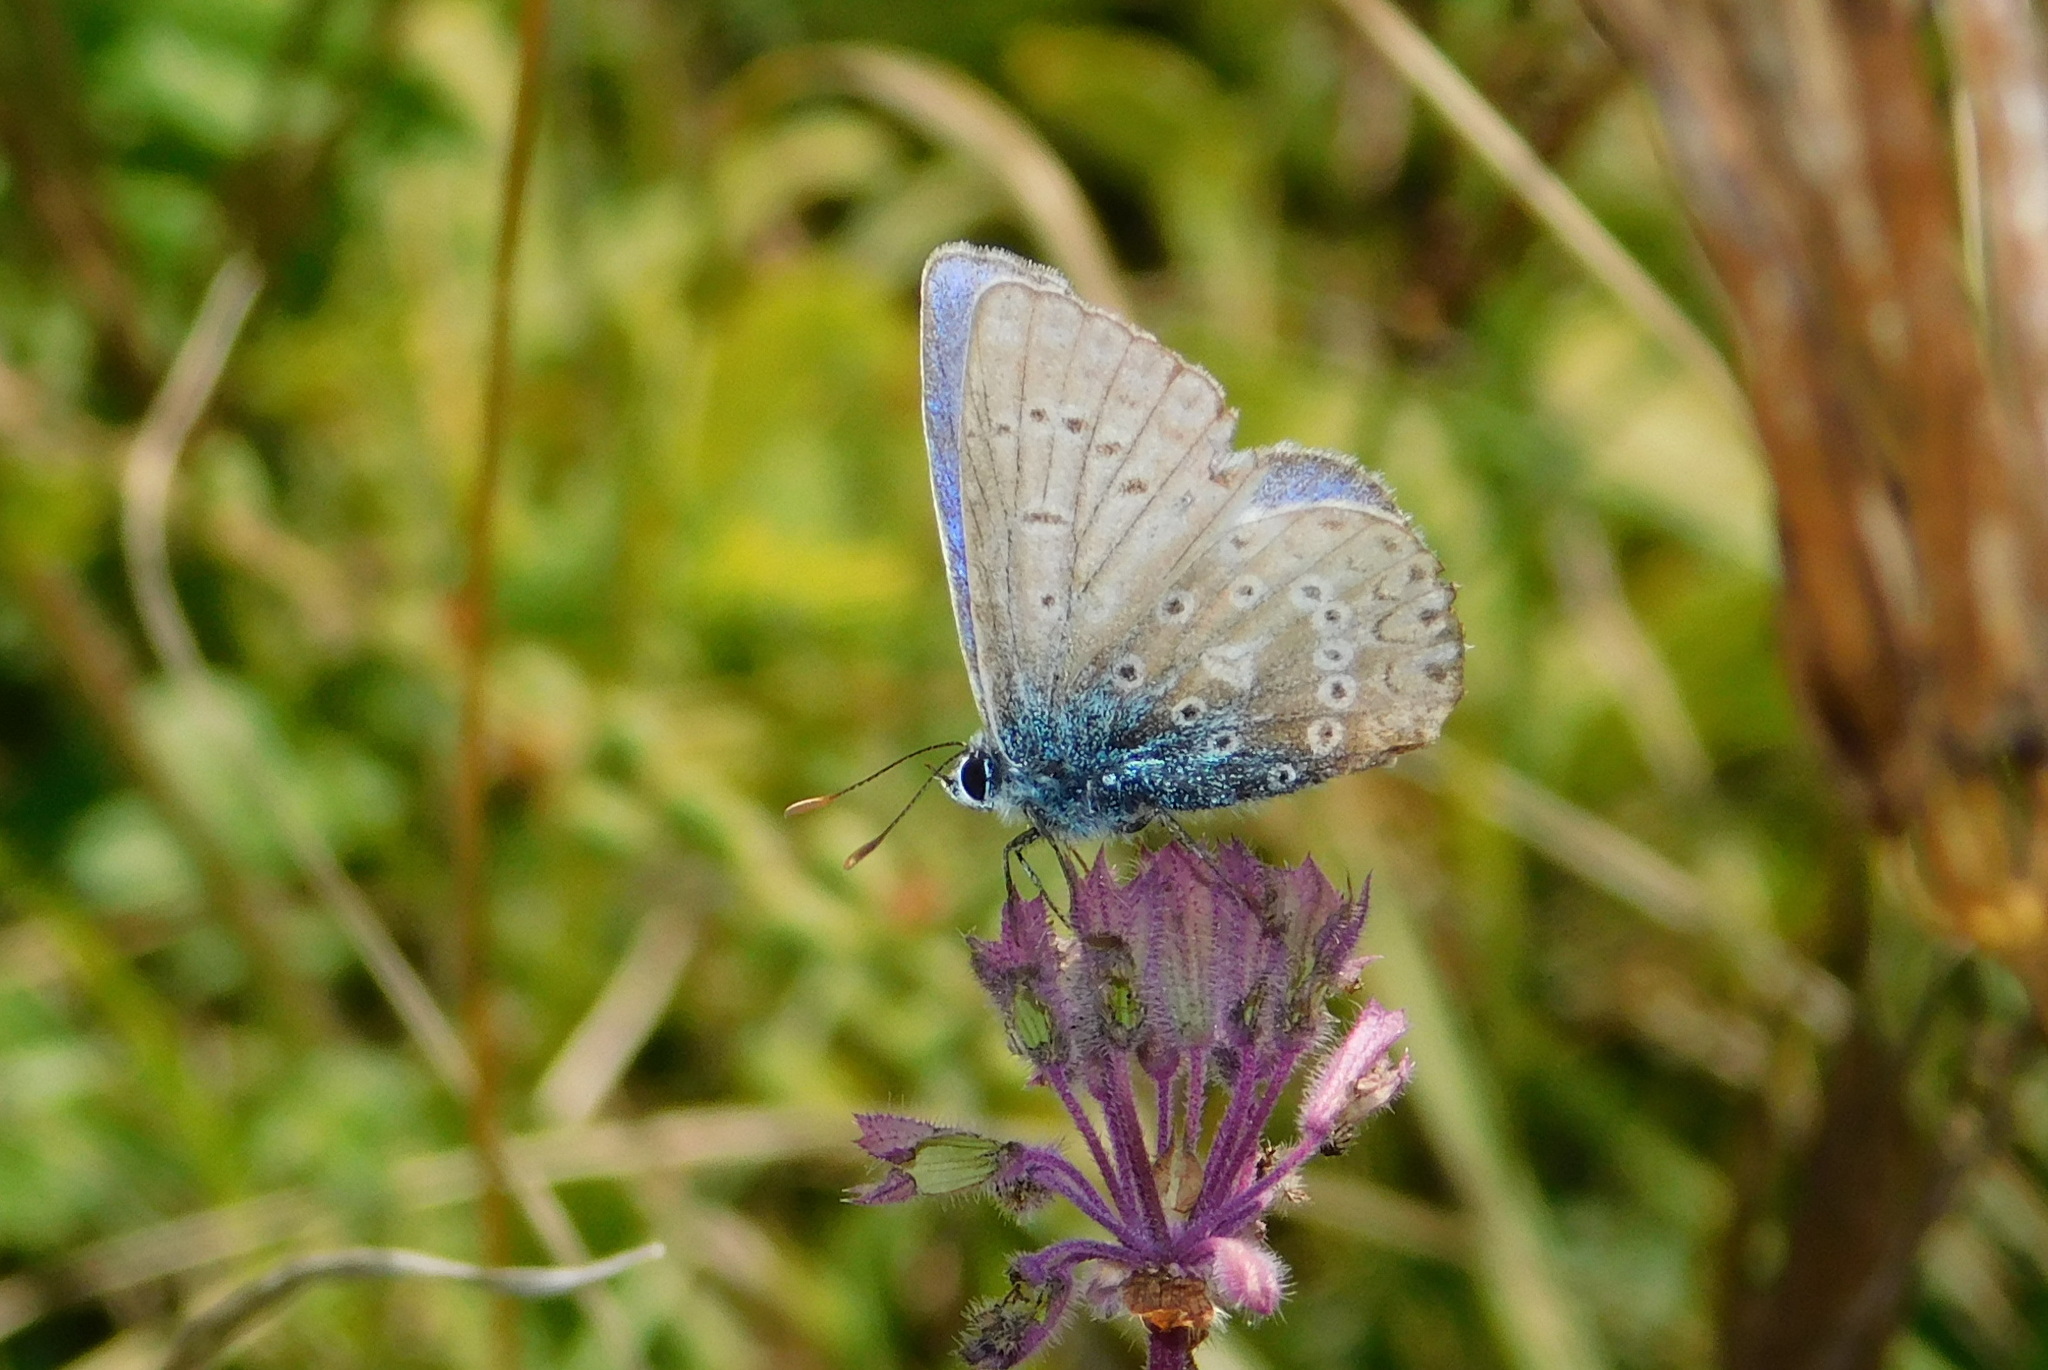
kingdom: Animalia
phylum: Arthropoda
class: Insecta
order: Lepidoptera
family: Lycaenidae
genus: Polyommatus
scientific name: Polyommatus icarus
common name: Common blue
